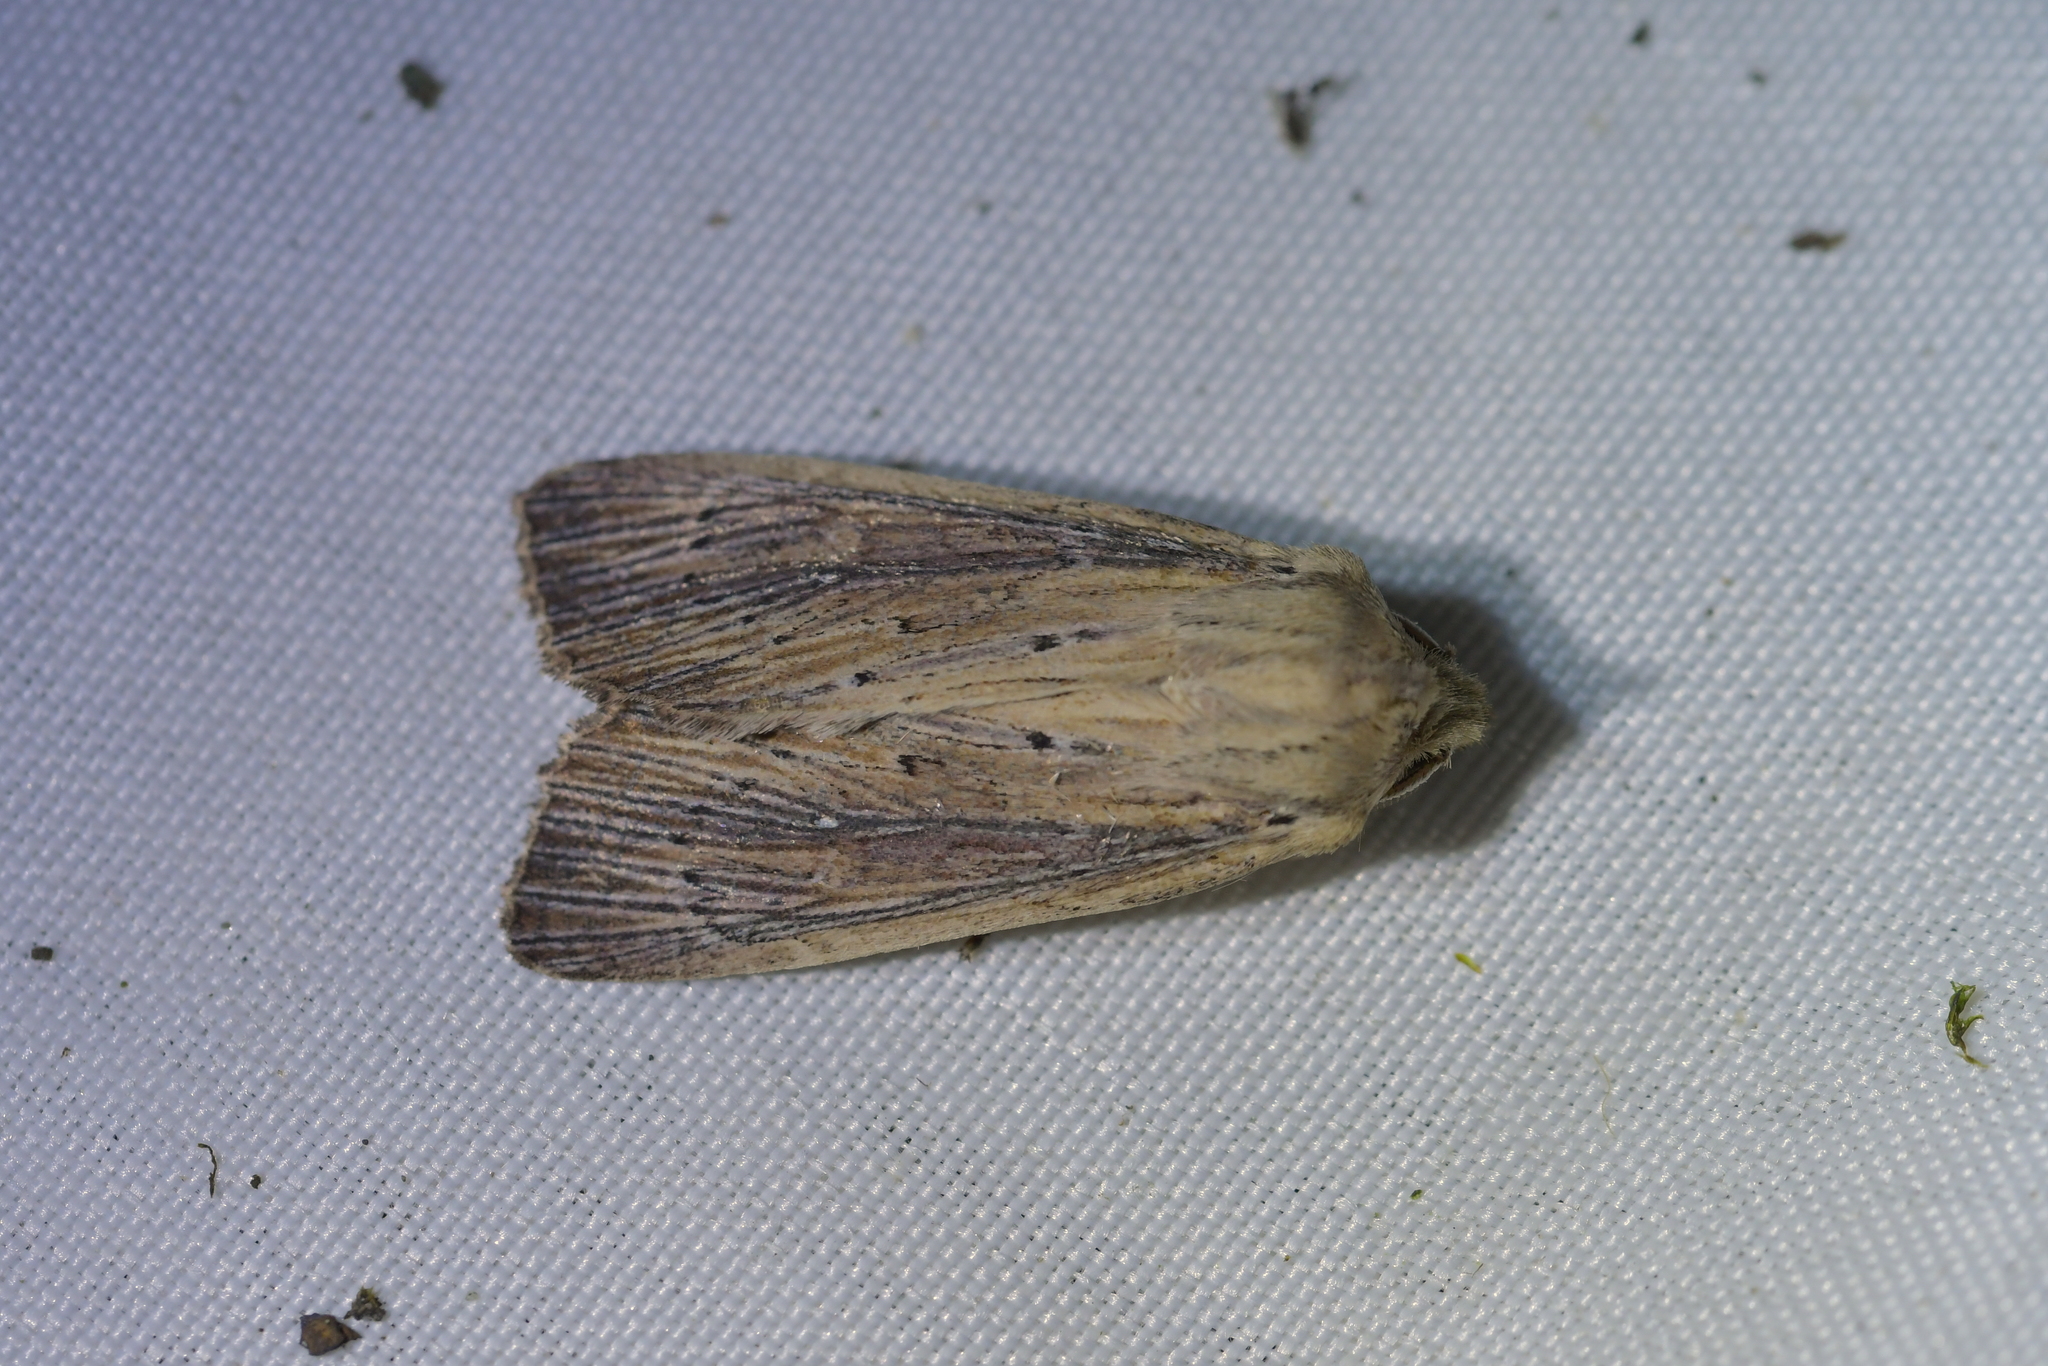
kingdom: Animalia
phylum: Arthropoda
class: Insecta
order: Lepidoptera
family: Noctuidae
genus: Ichneutica
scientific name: Ichneutica arotis
